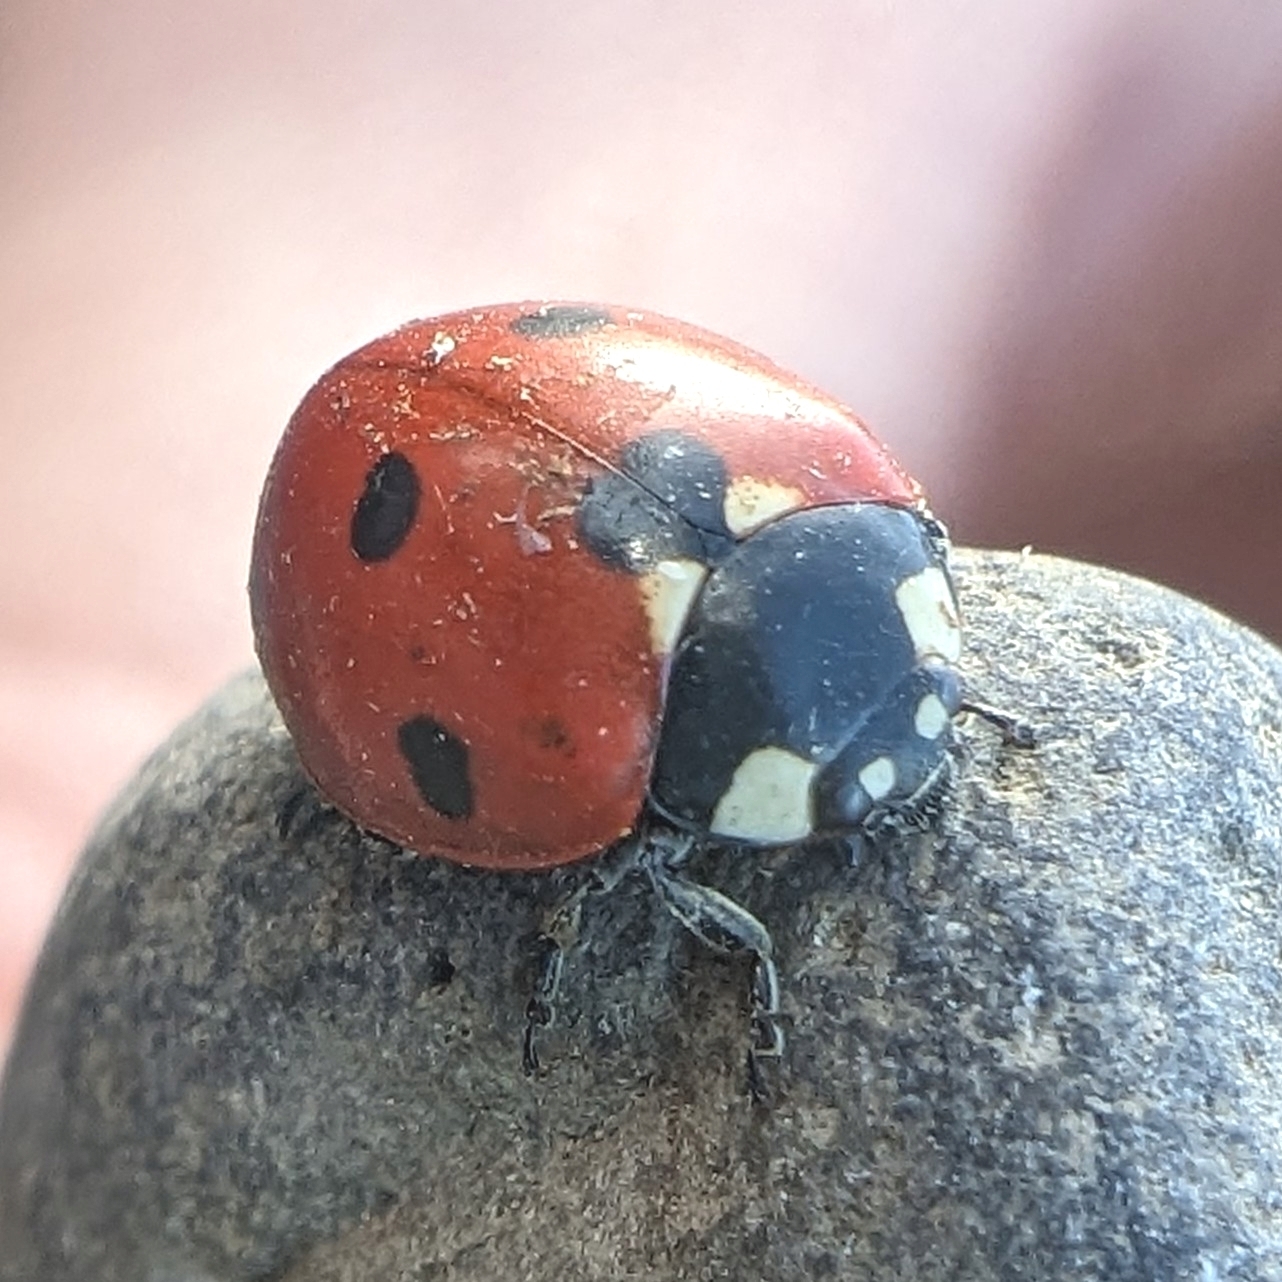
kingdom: Animalia
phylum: Arthropoda
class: Insecta
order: Coleoptera
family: Coccinellidae
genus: Coccinella
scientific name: Coccinella septempunctata
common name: Sevenspotted lady beetle
